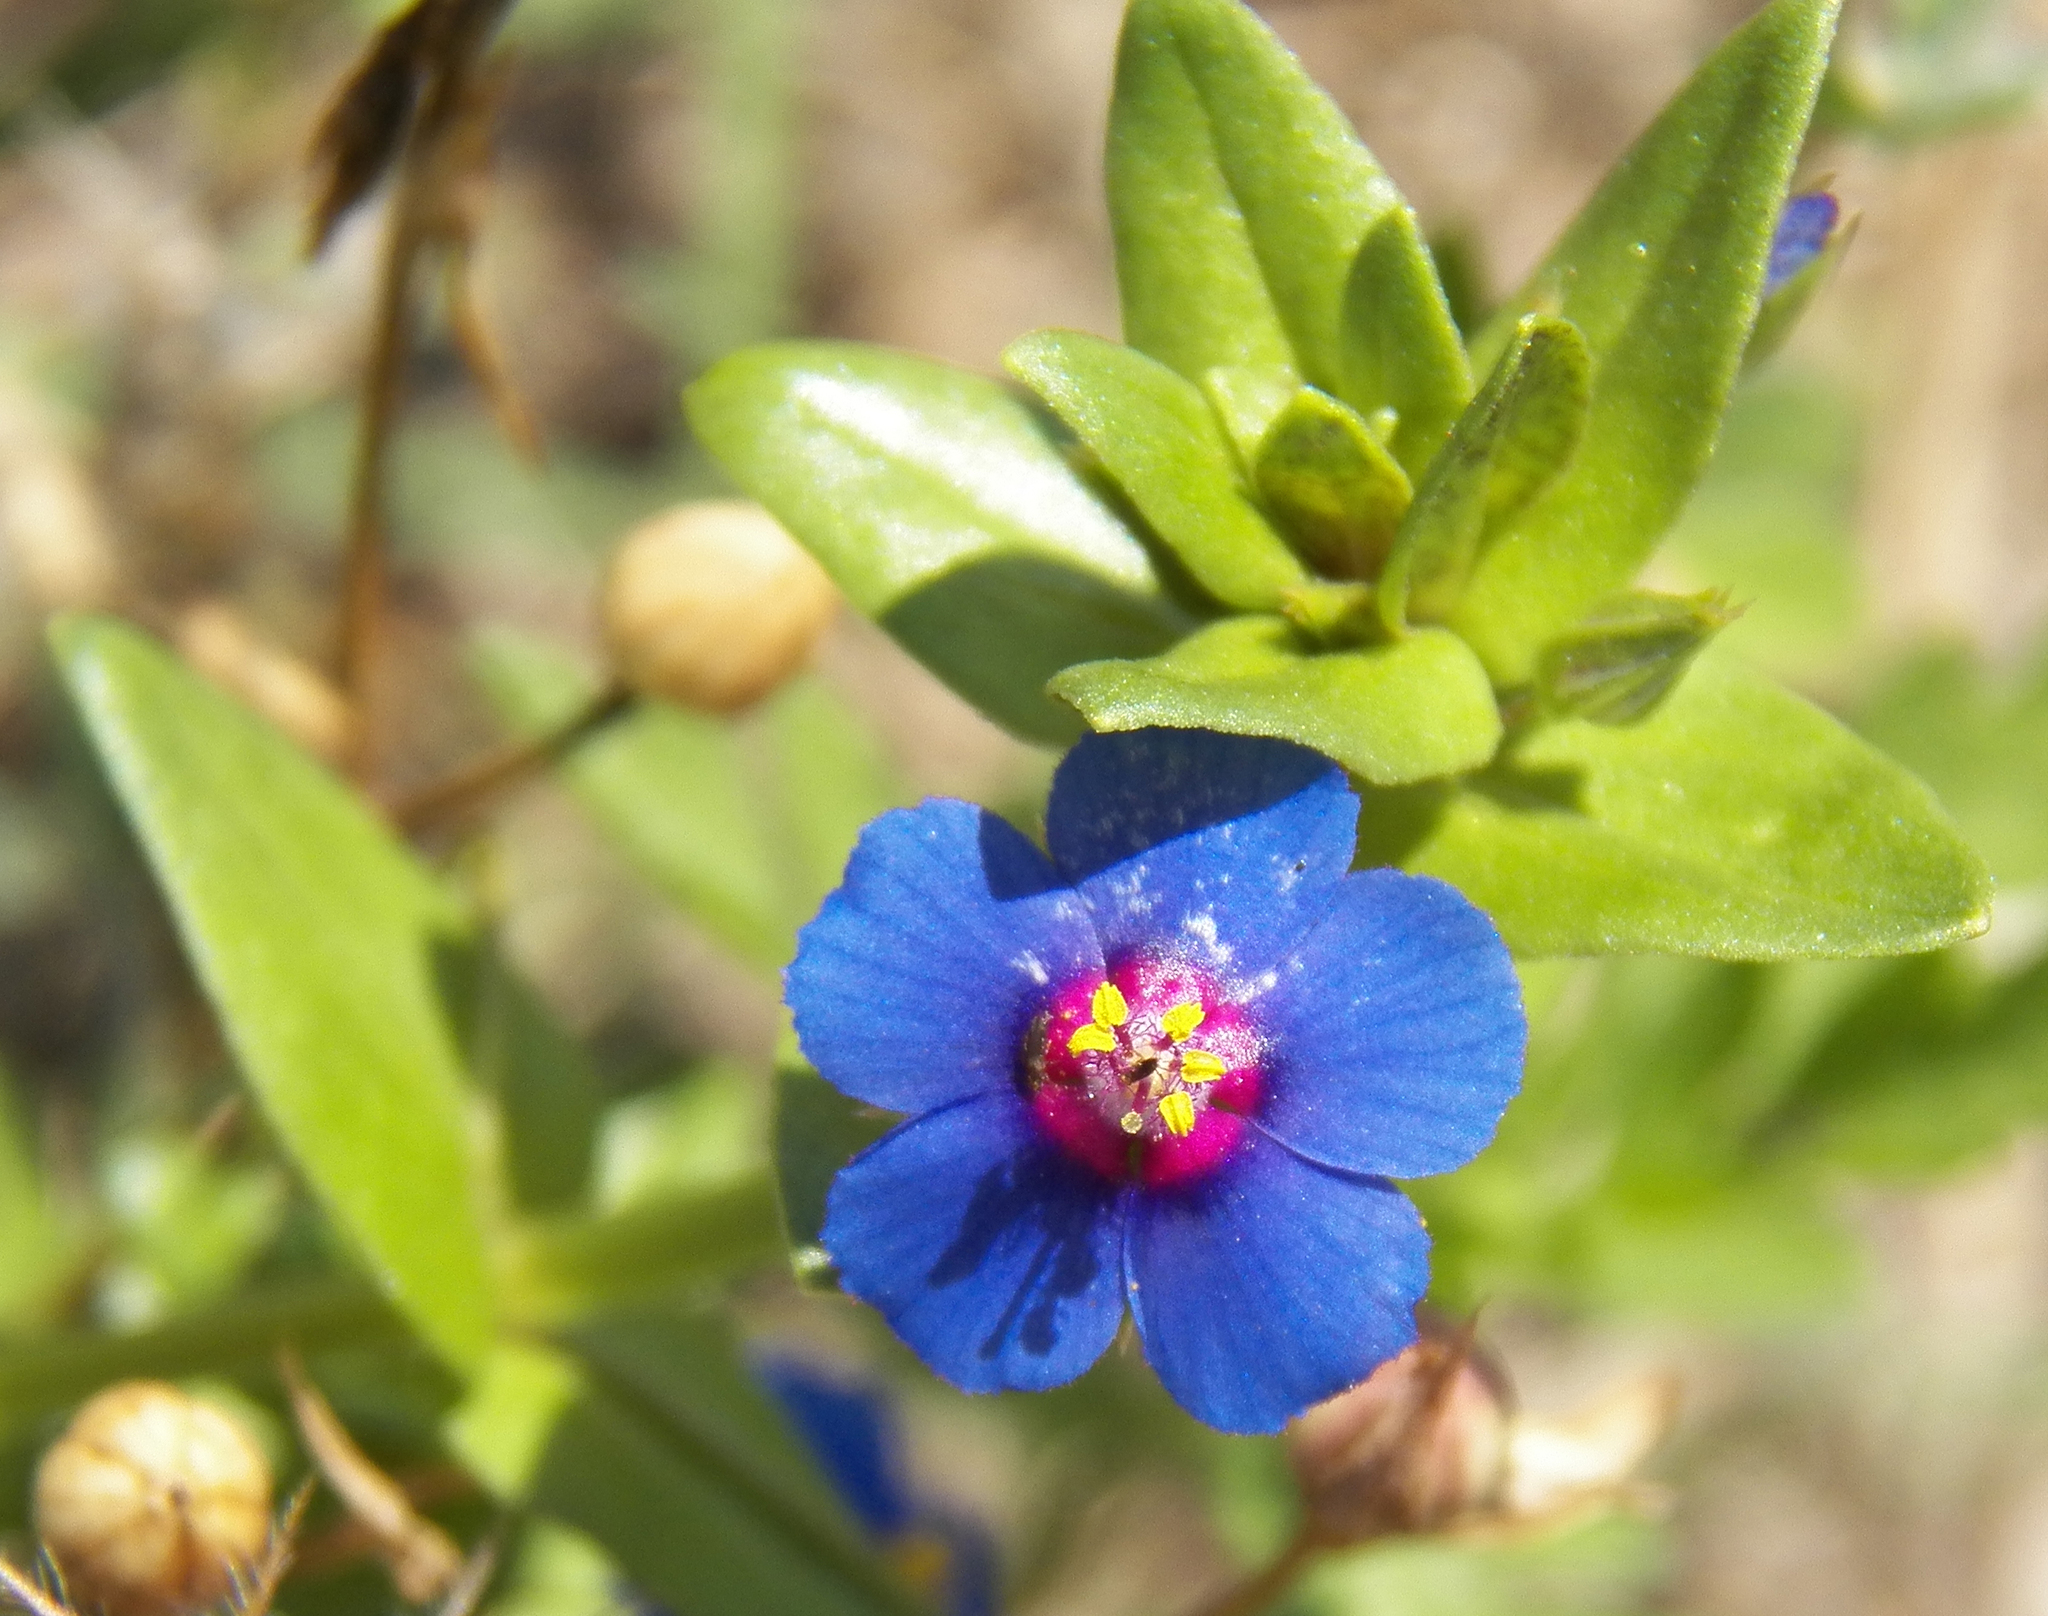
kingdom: Plantae
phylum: Tracheophyta
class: Magnoliopsida
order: Ericales
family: Primulaceae
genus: Lysimachia
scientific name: Lysimachia loeflingii
